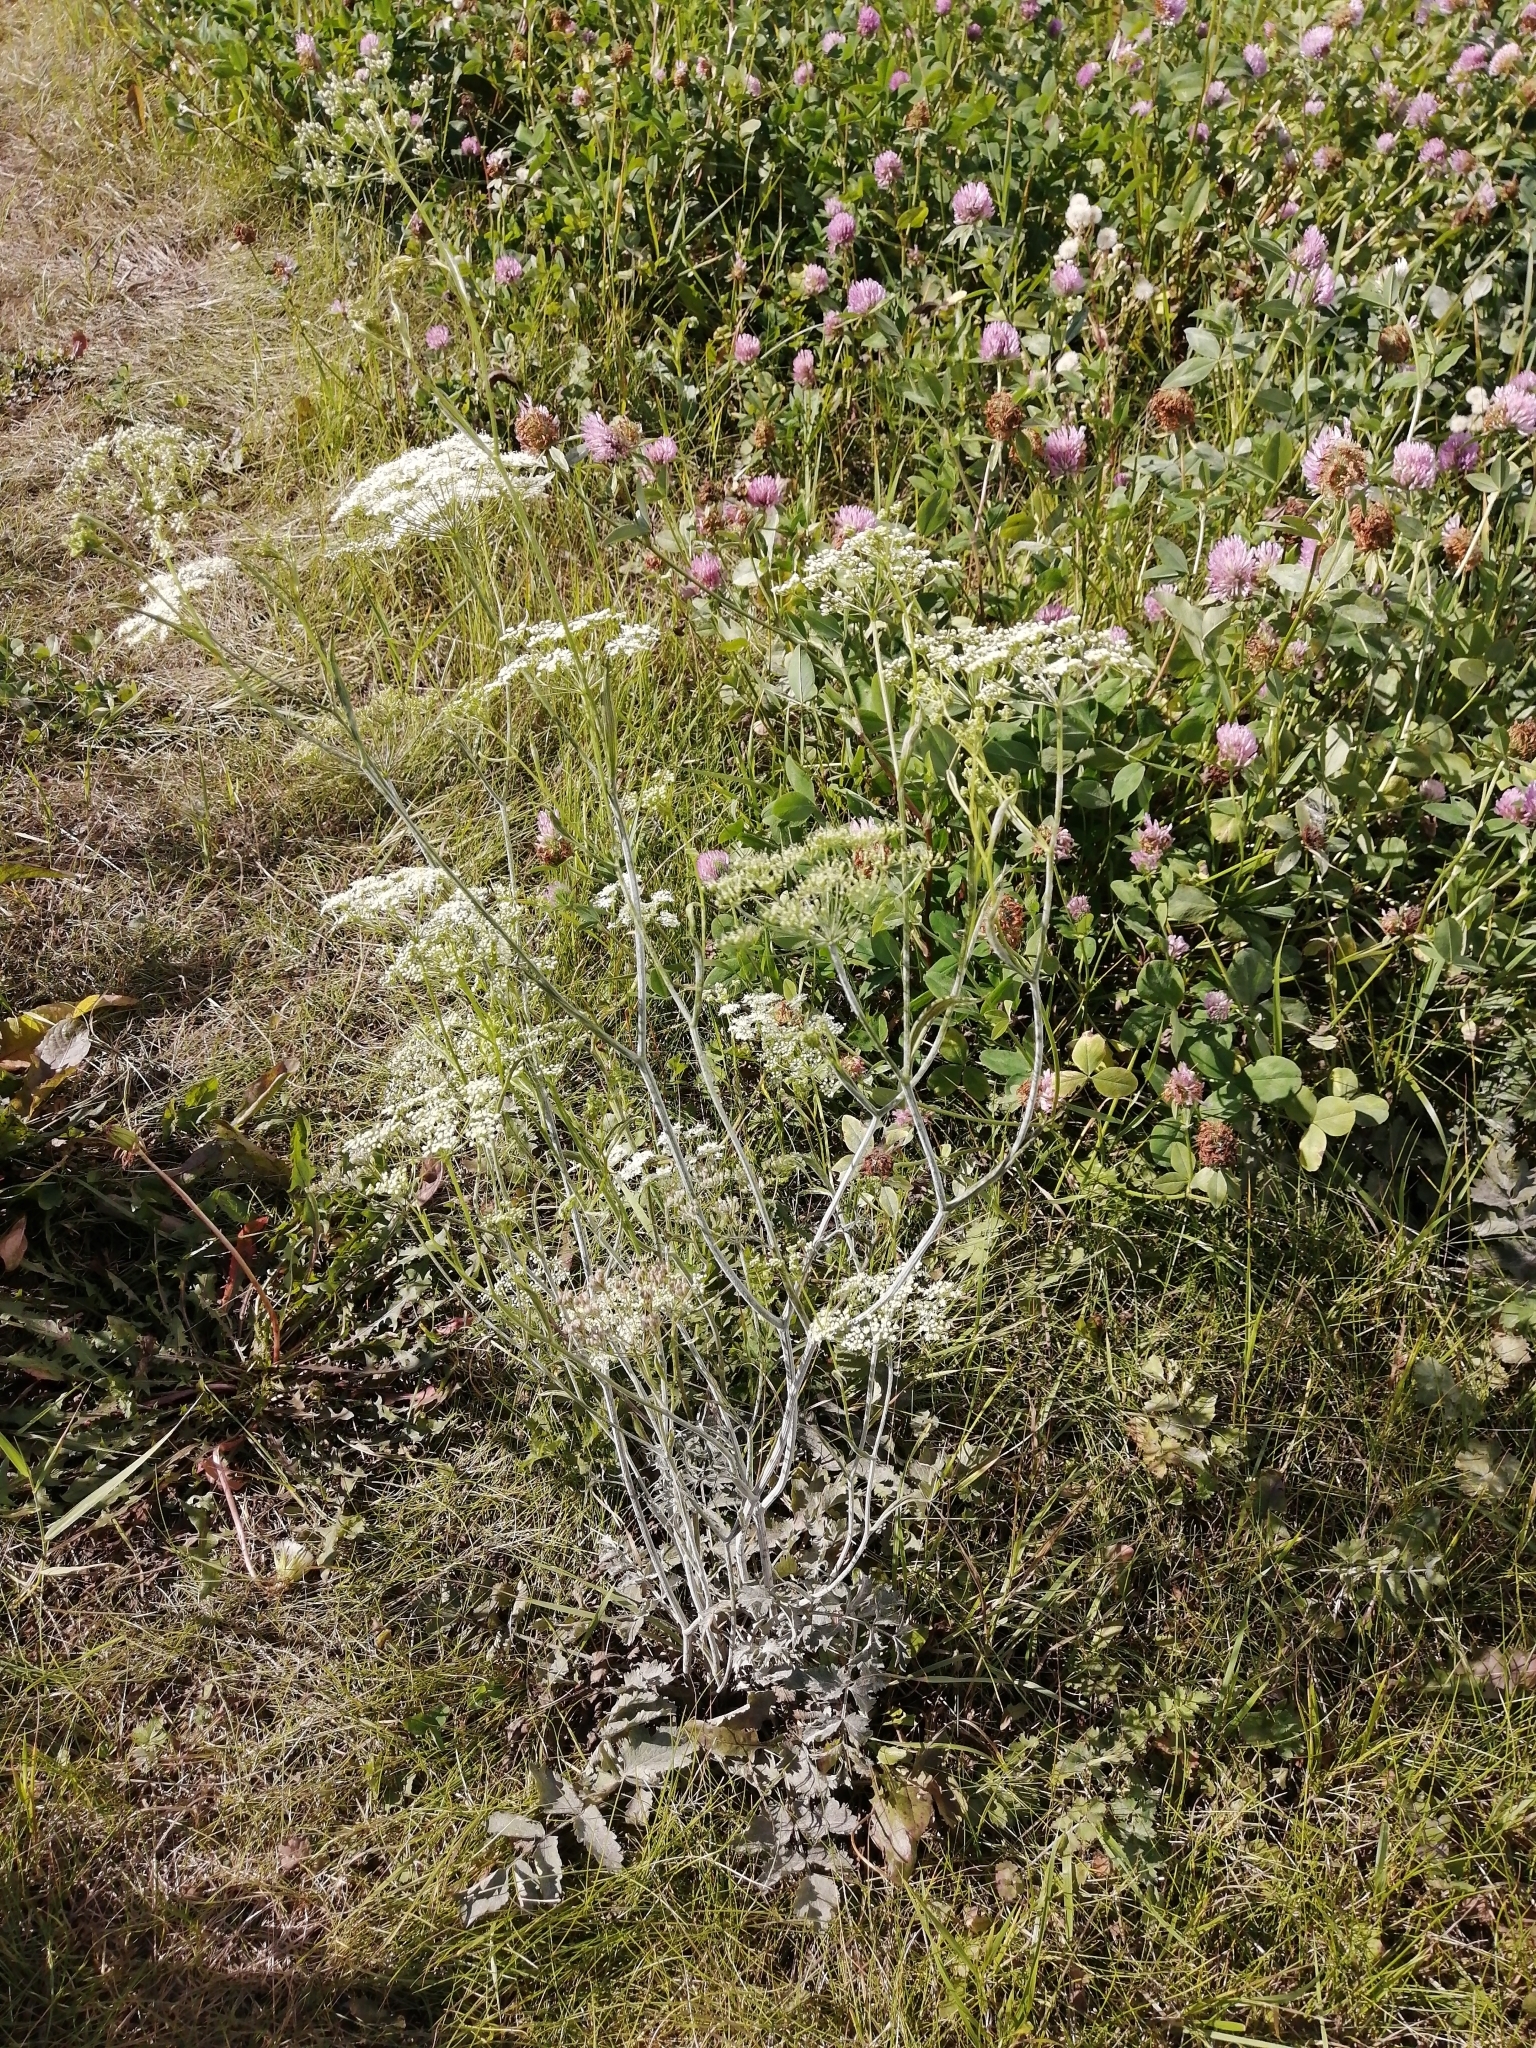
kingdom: Plantae
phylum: Tracheophyta
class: Magnoliopsida
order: Apiales
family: Apiaceae
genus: Pimpinella
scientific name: Pimpinella saxifraga
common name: Burnet-saxifrage
